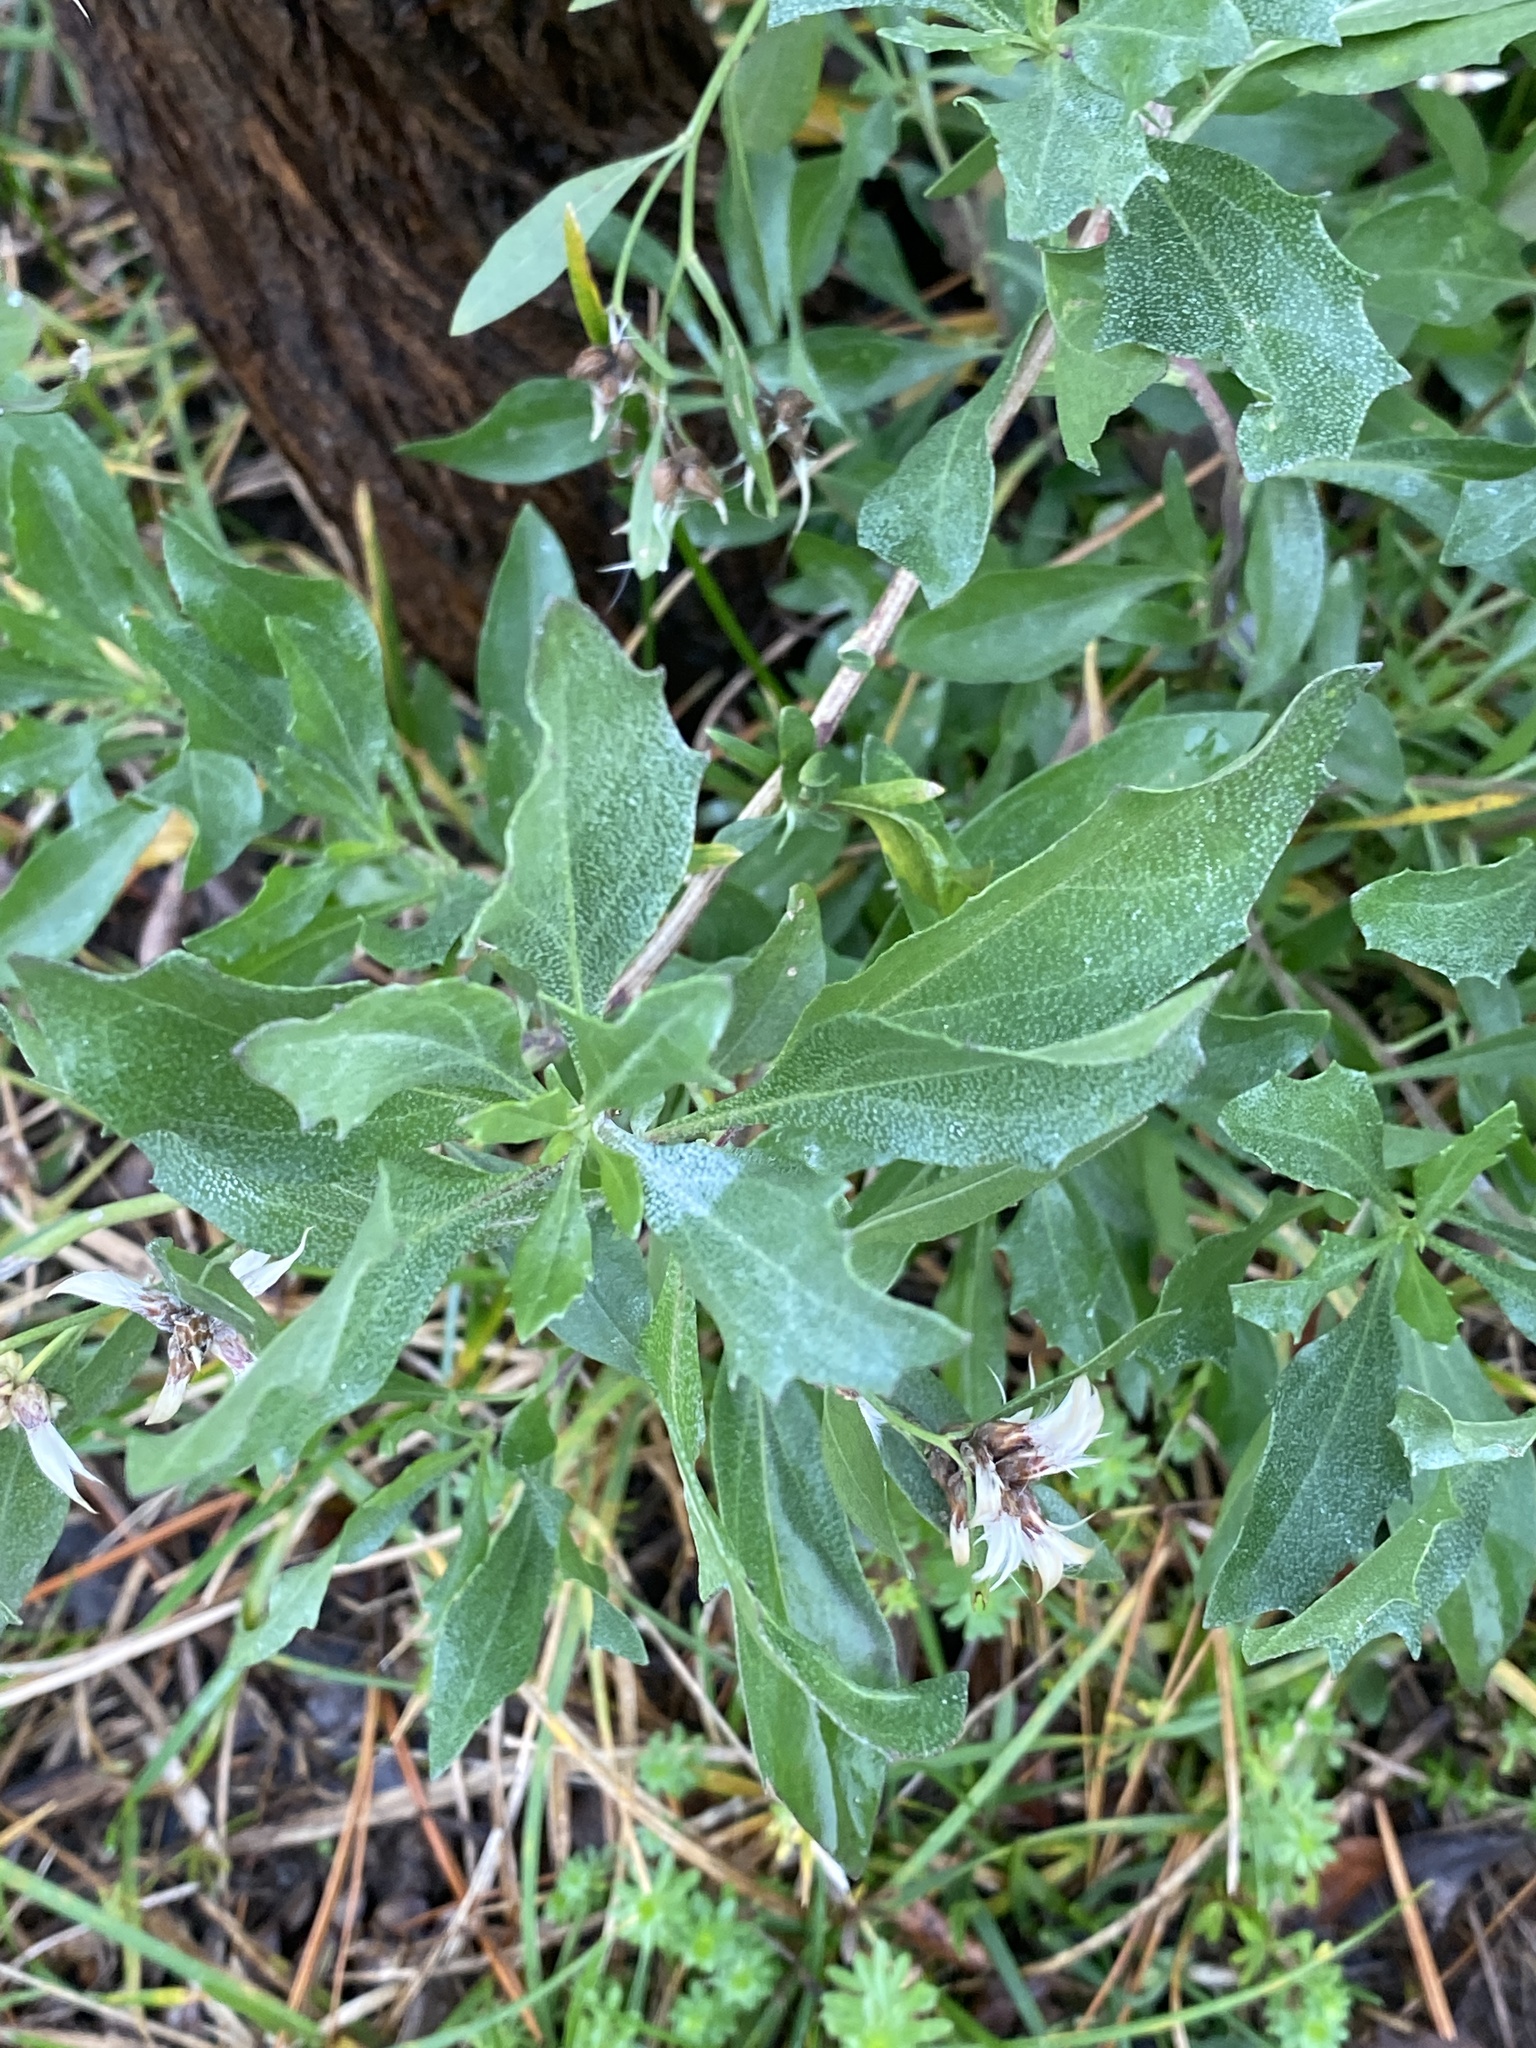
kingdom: Plantae
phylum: Tracheophyta
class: Magnoliopsida
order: Asterales
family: Asteraceae
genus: Baccharis
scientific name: Baccharis halimifolia
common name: Eastern baccharis
